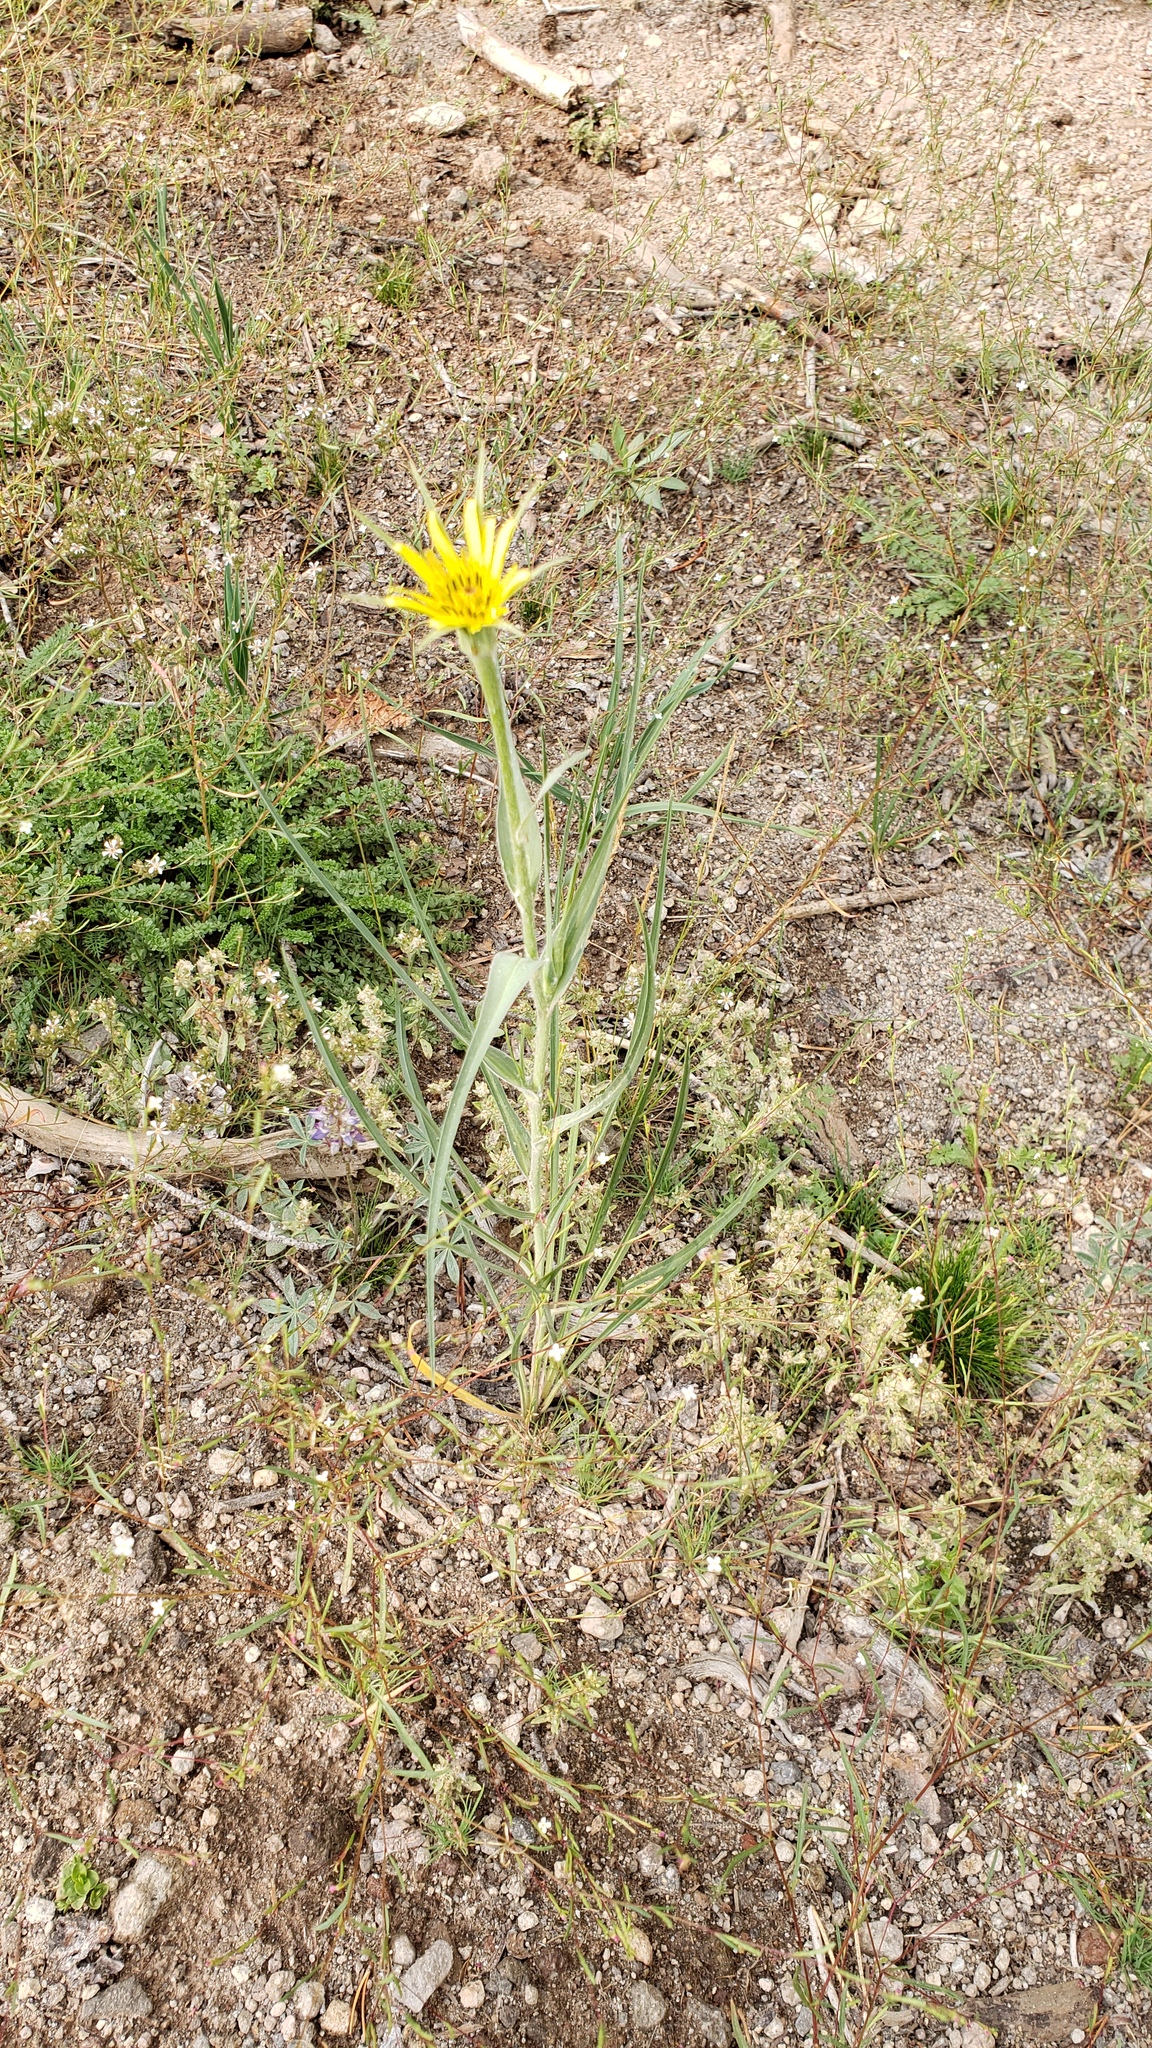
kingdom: Plantae
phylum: Tracheophyta
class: Magnoliopsida
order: Asterales
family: Asteraceae
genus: Tragopogon
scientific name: Tragopogon dubius
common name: Yellow salsify
